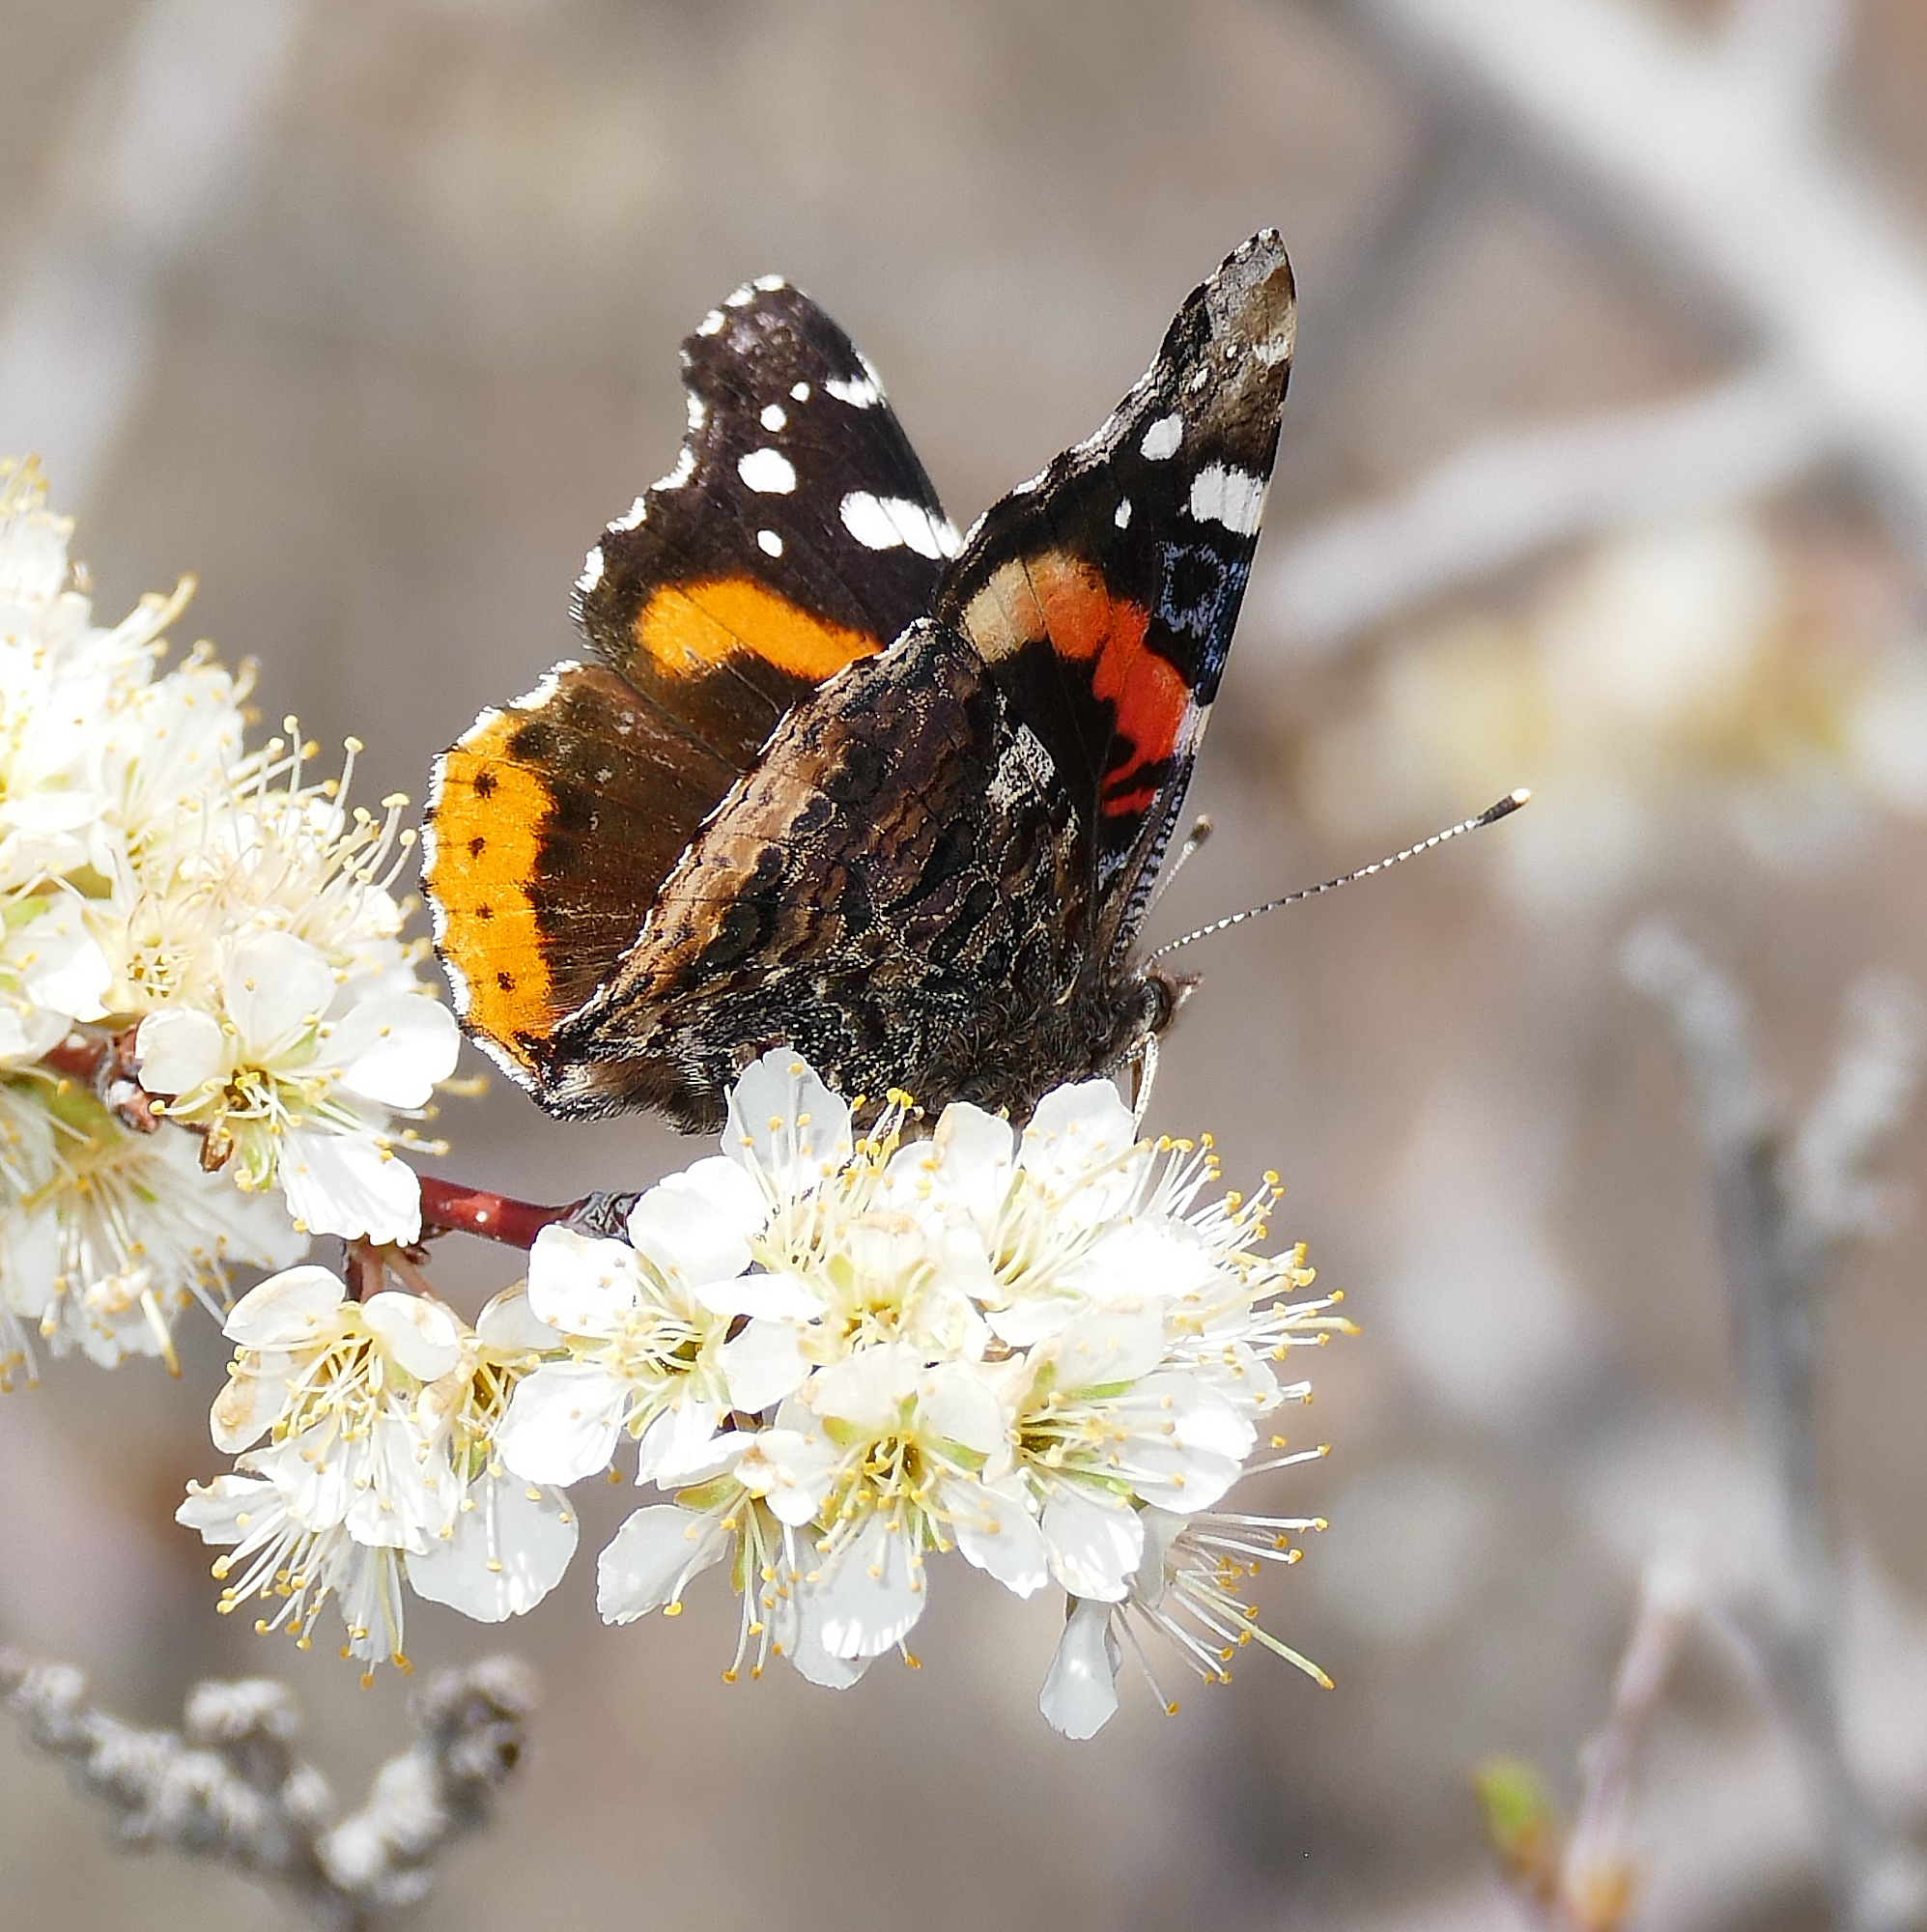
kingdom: Animalia
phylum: Arthropoda
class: Insecta
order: Lepidoptera
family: Nymphalidae
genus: Vanessa
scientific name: Vanessa atalanta
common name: Red admiral
